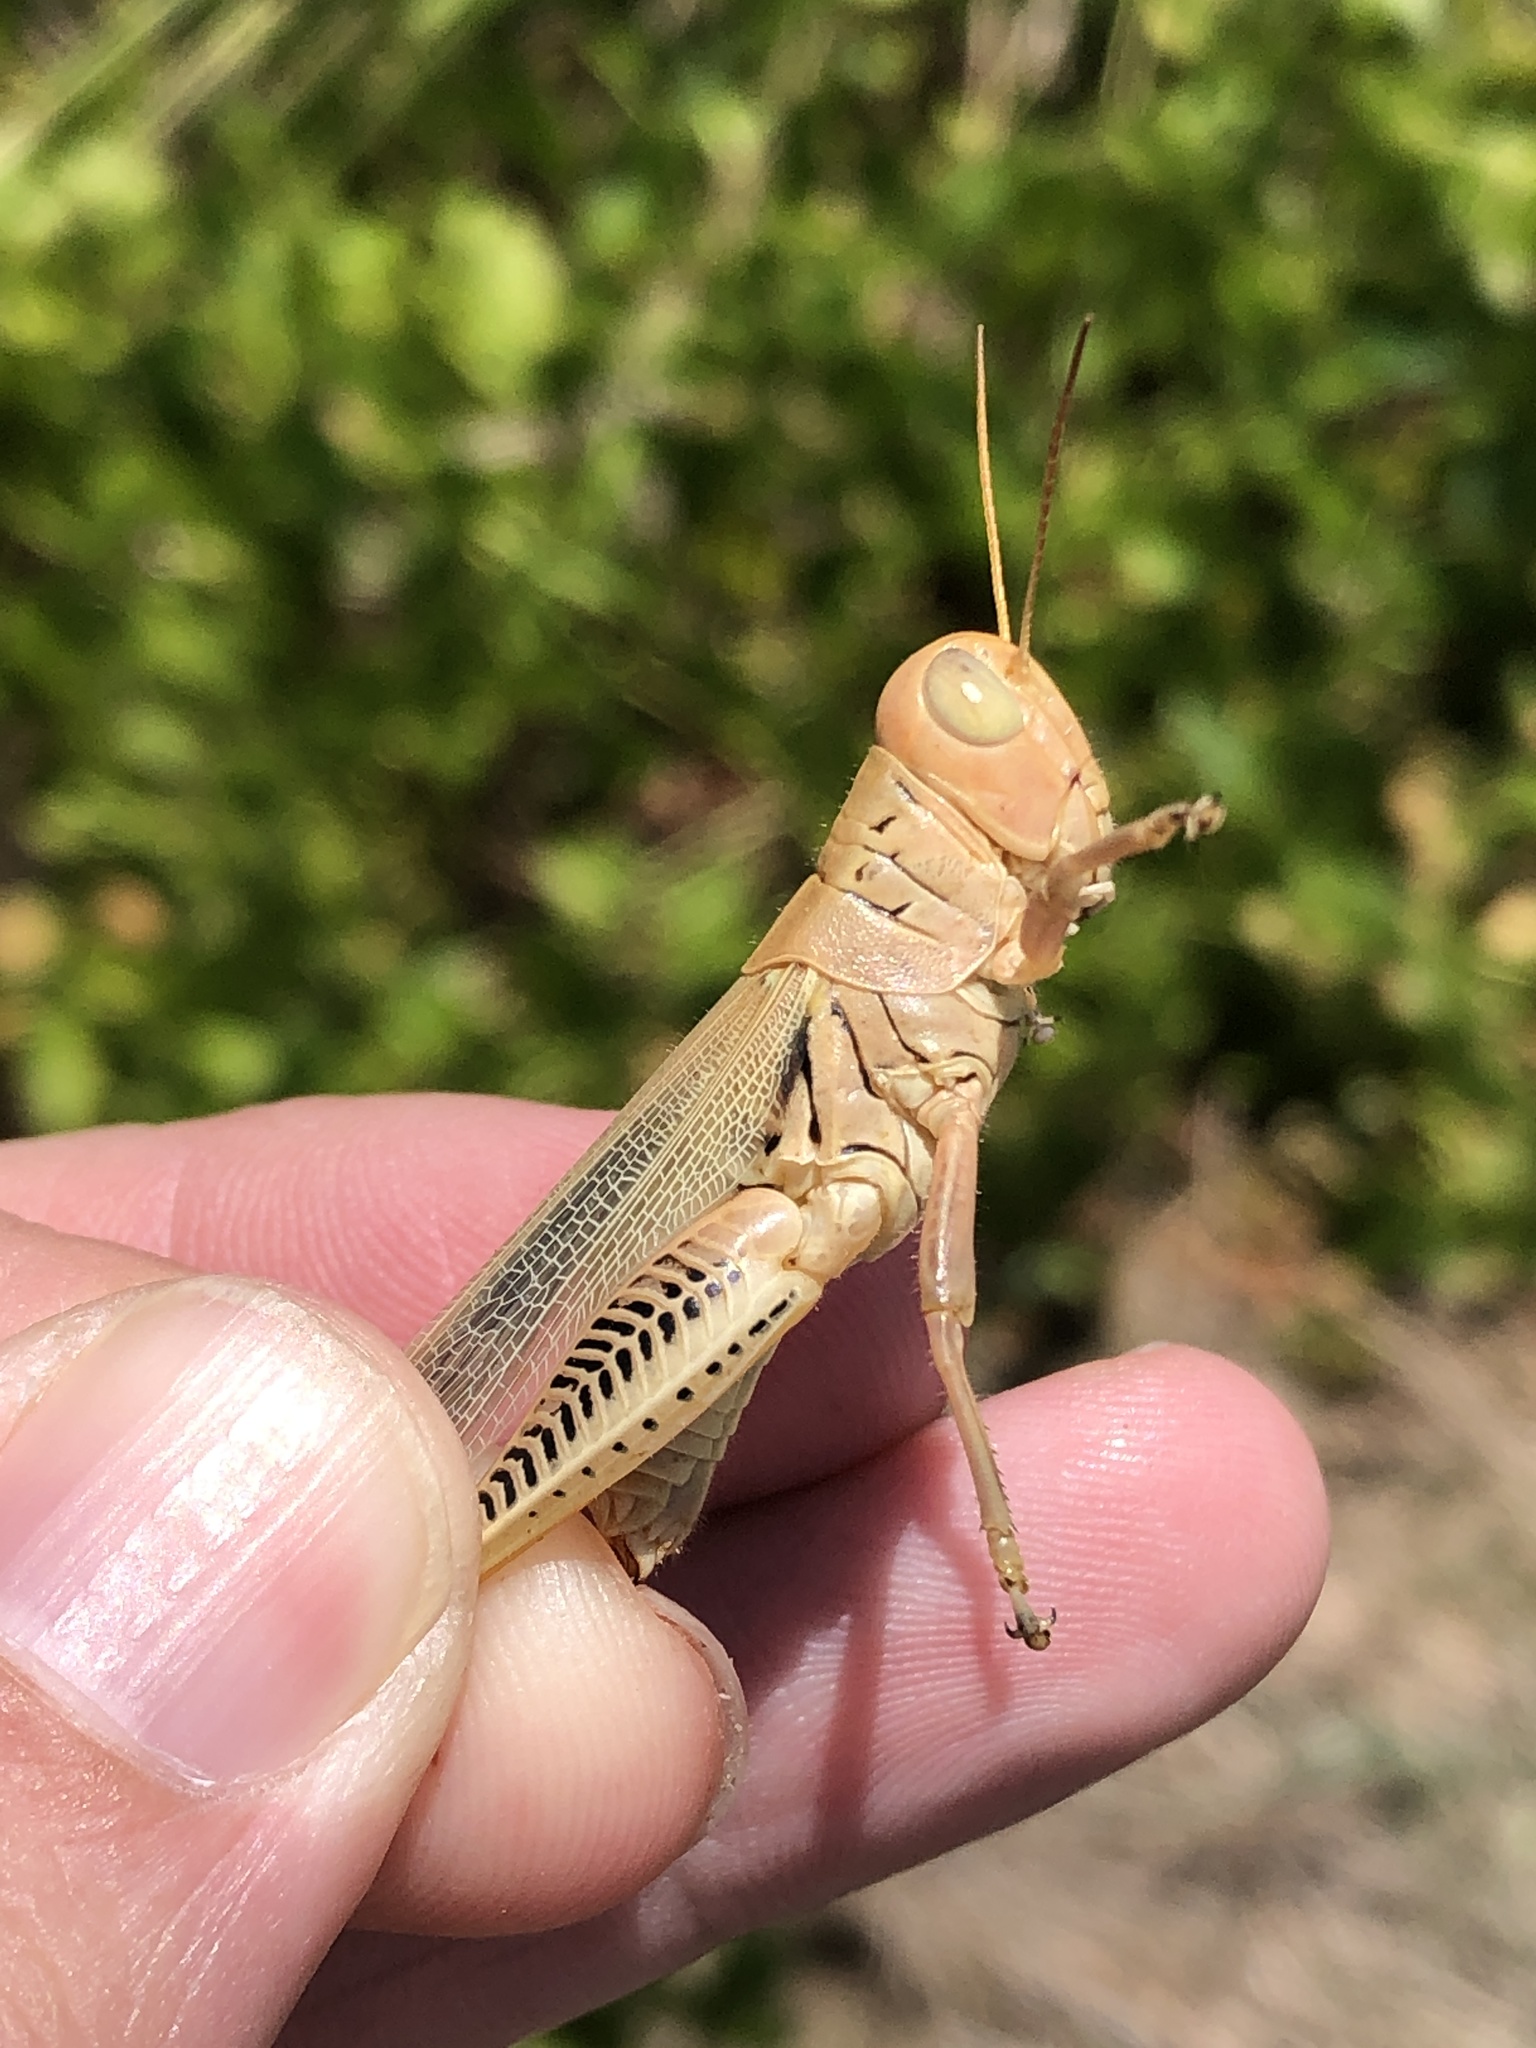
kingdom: Animalia
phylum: Arthropoda
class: Insecta
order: Orthoptera
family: Acrididae
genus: Melanoplus
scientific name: Melanoplus differentialis
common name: Differential grasshopper
